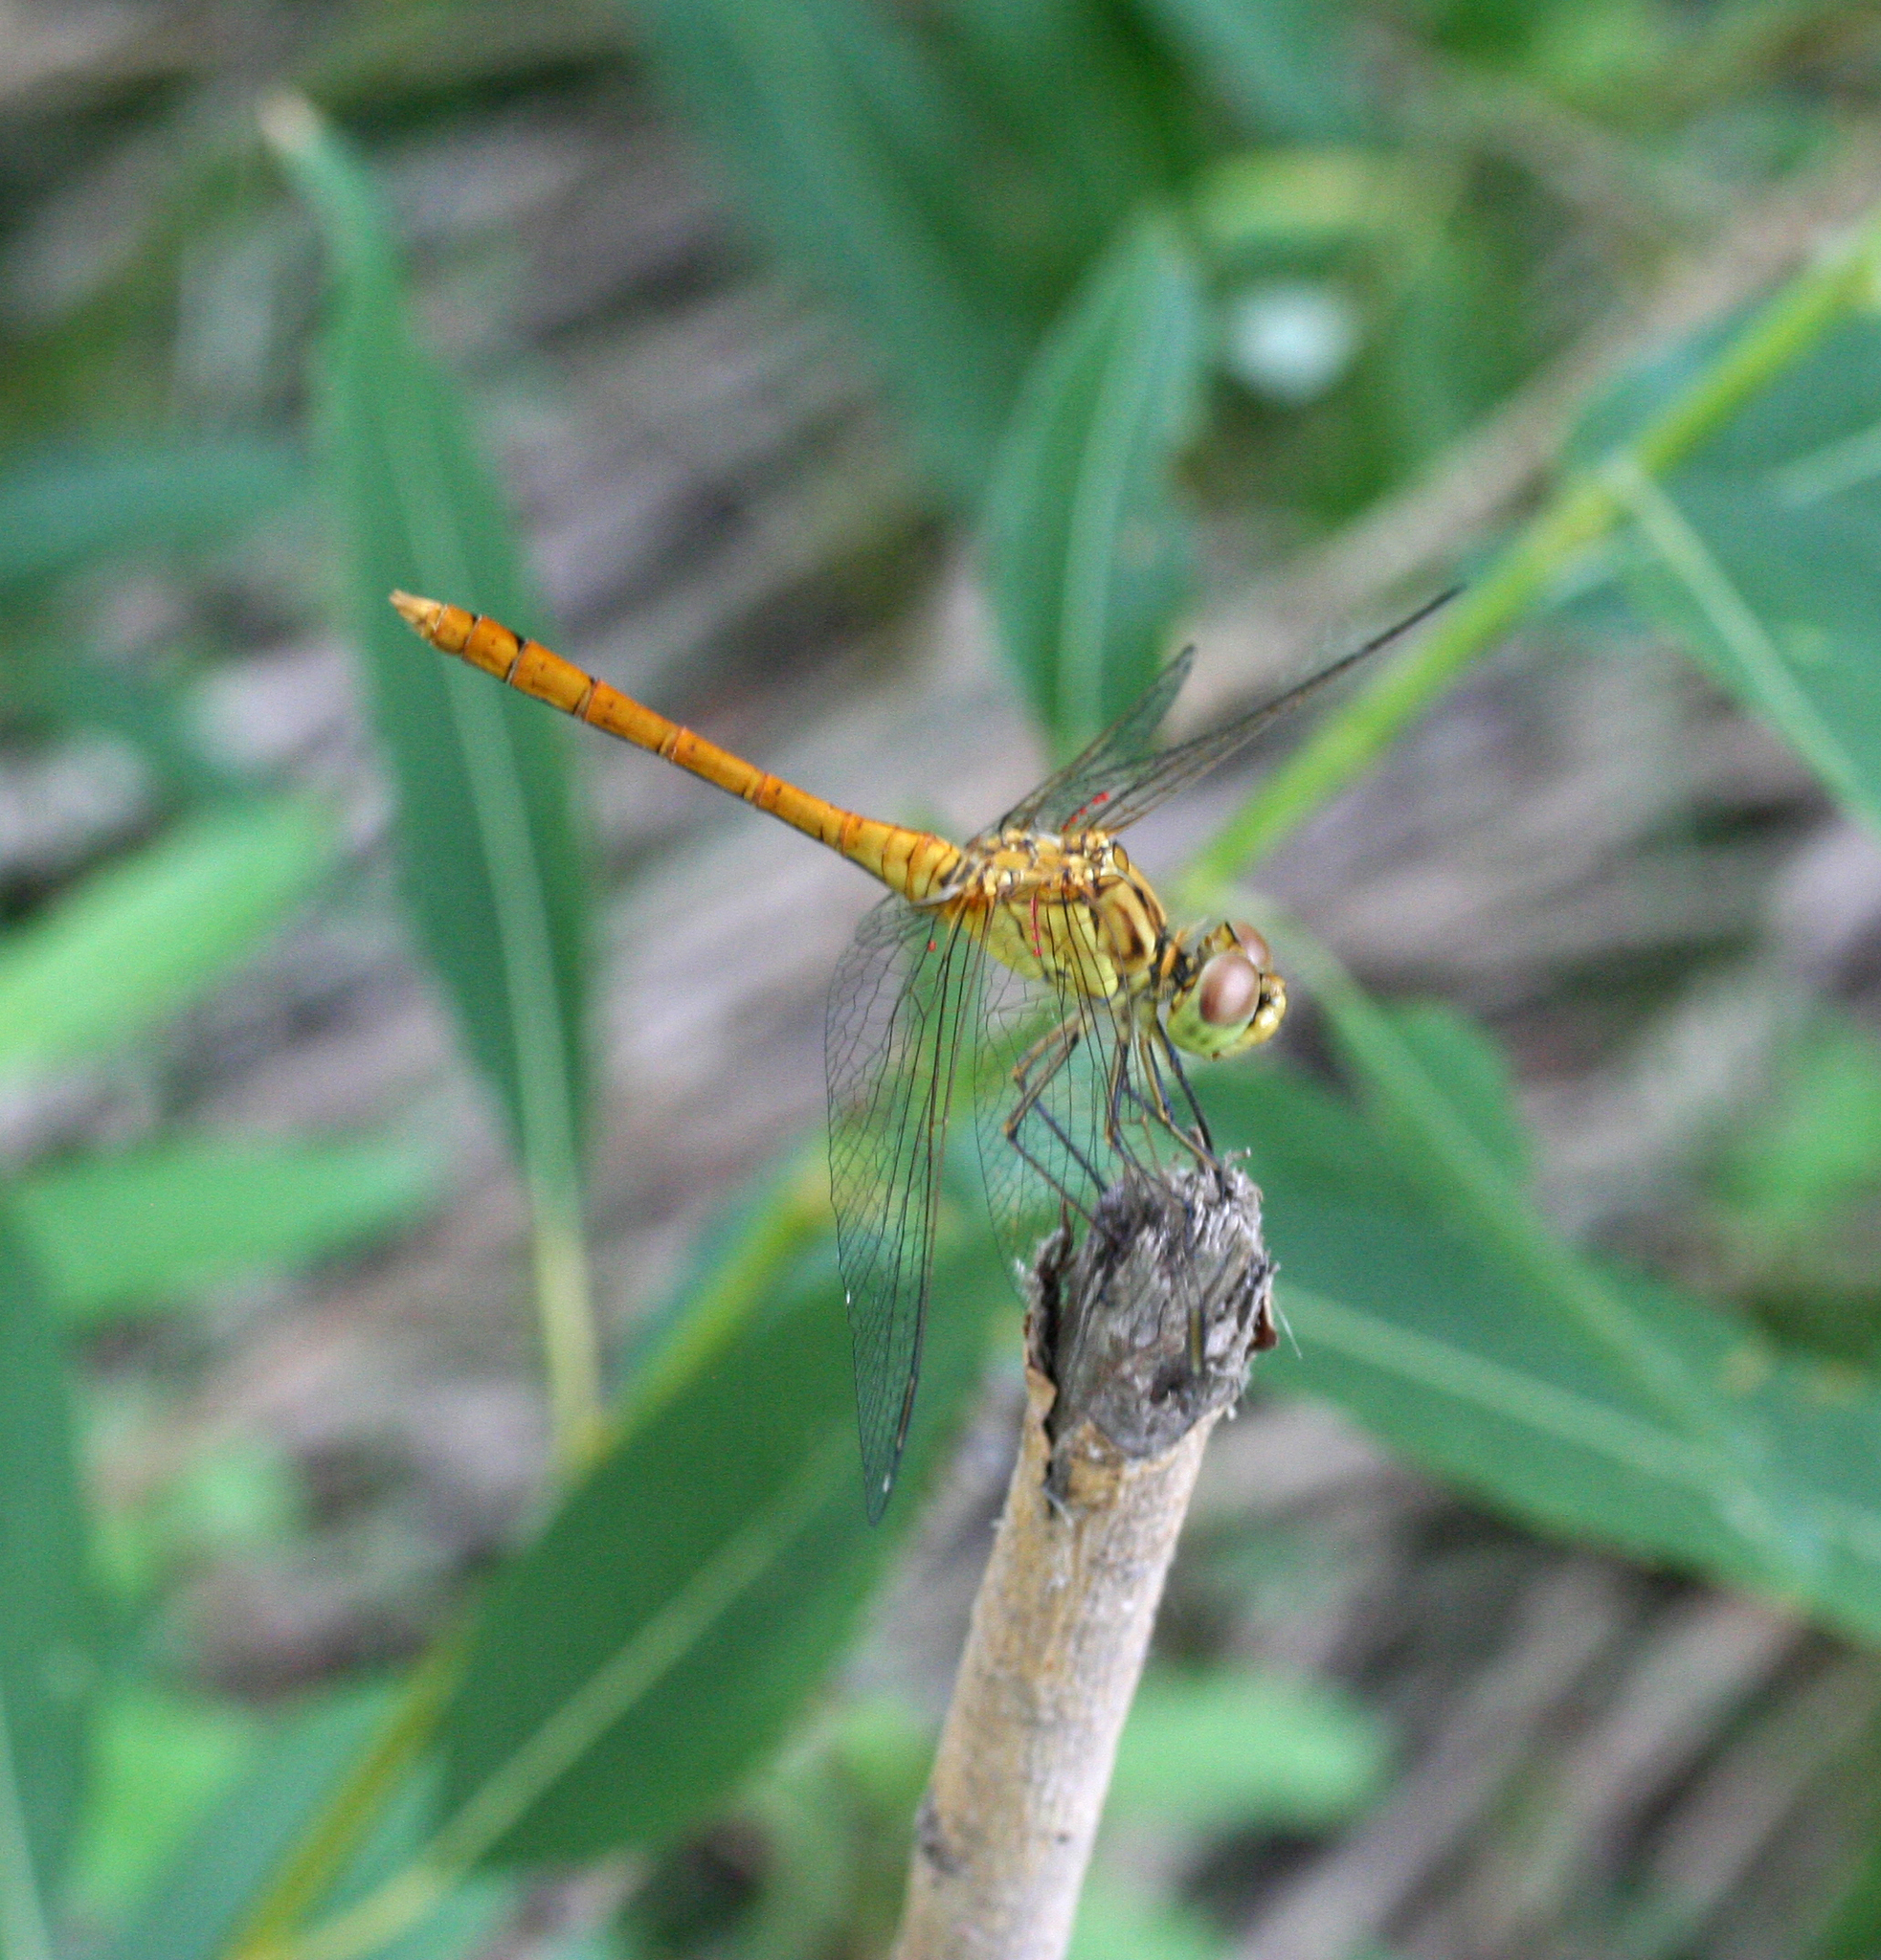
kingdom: Animalia
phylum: Arthropoda
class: Insecta
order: Odonata
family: Libellulidae
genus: Sympetrum
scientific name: Sympetrum meridionale
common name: Southern darter
